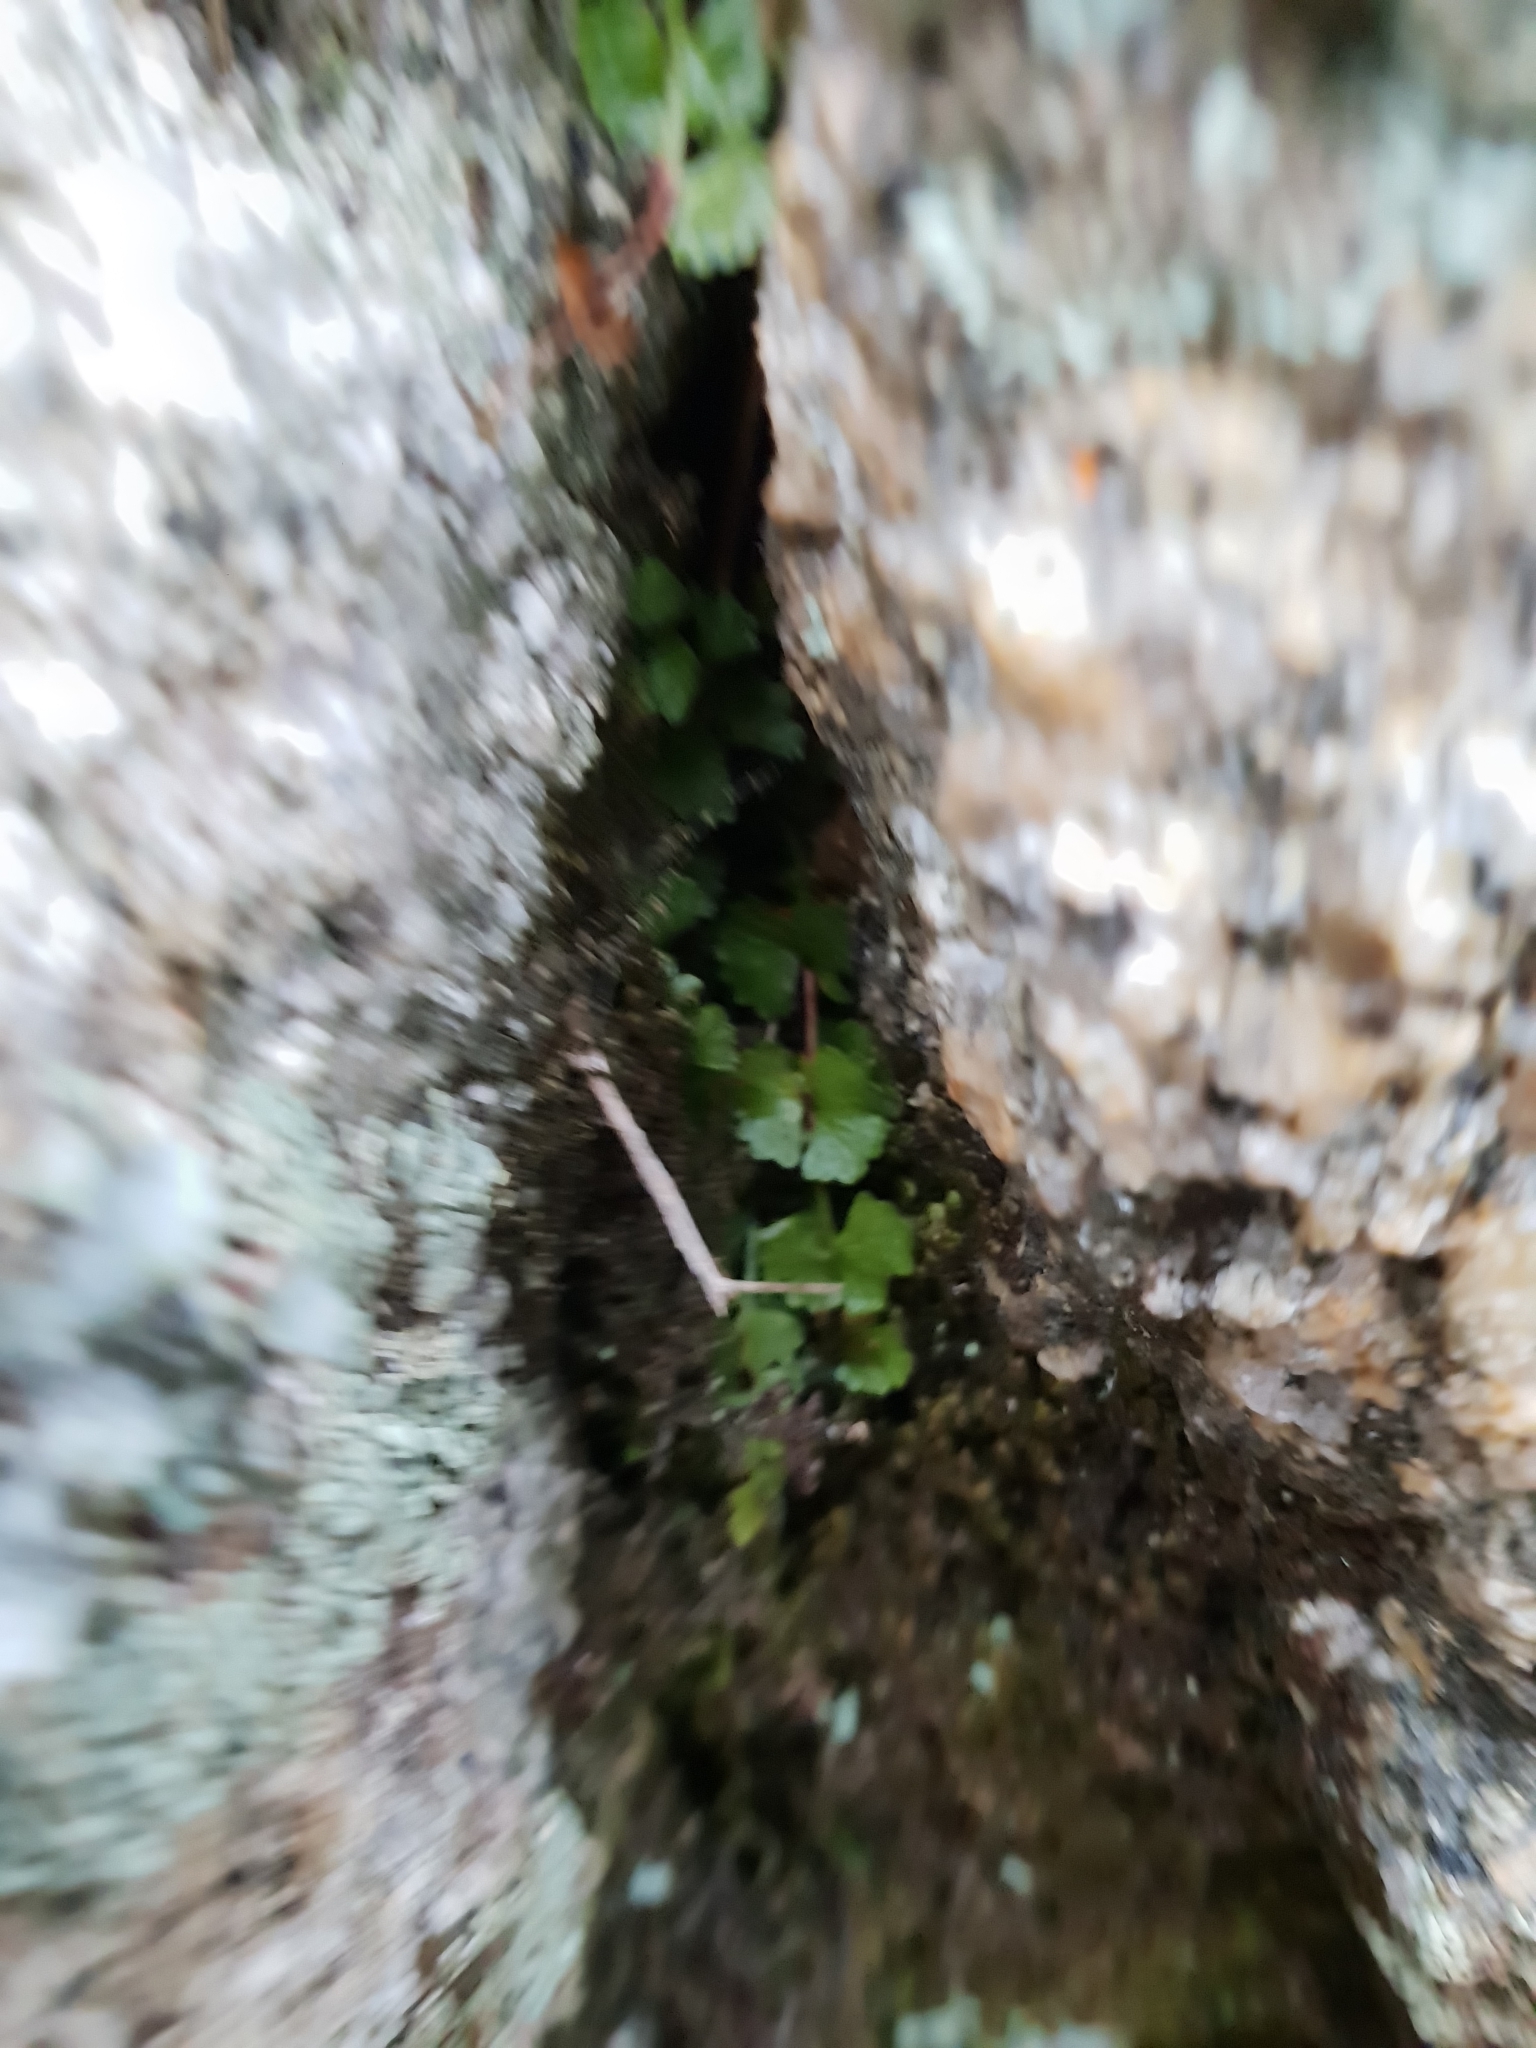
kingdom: Plantae
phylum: Tracheophyta
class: Polypodiopsida
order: Polypodiales
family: Aspleniaceae
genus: Asplenium
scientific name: Asplenium flabellifolium
